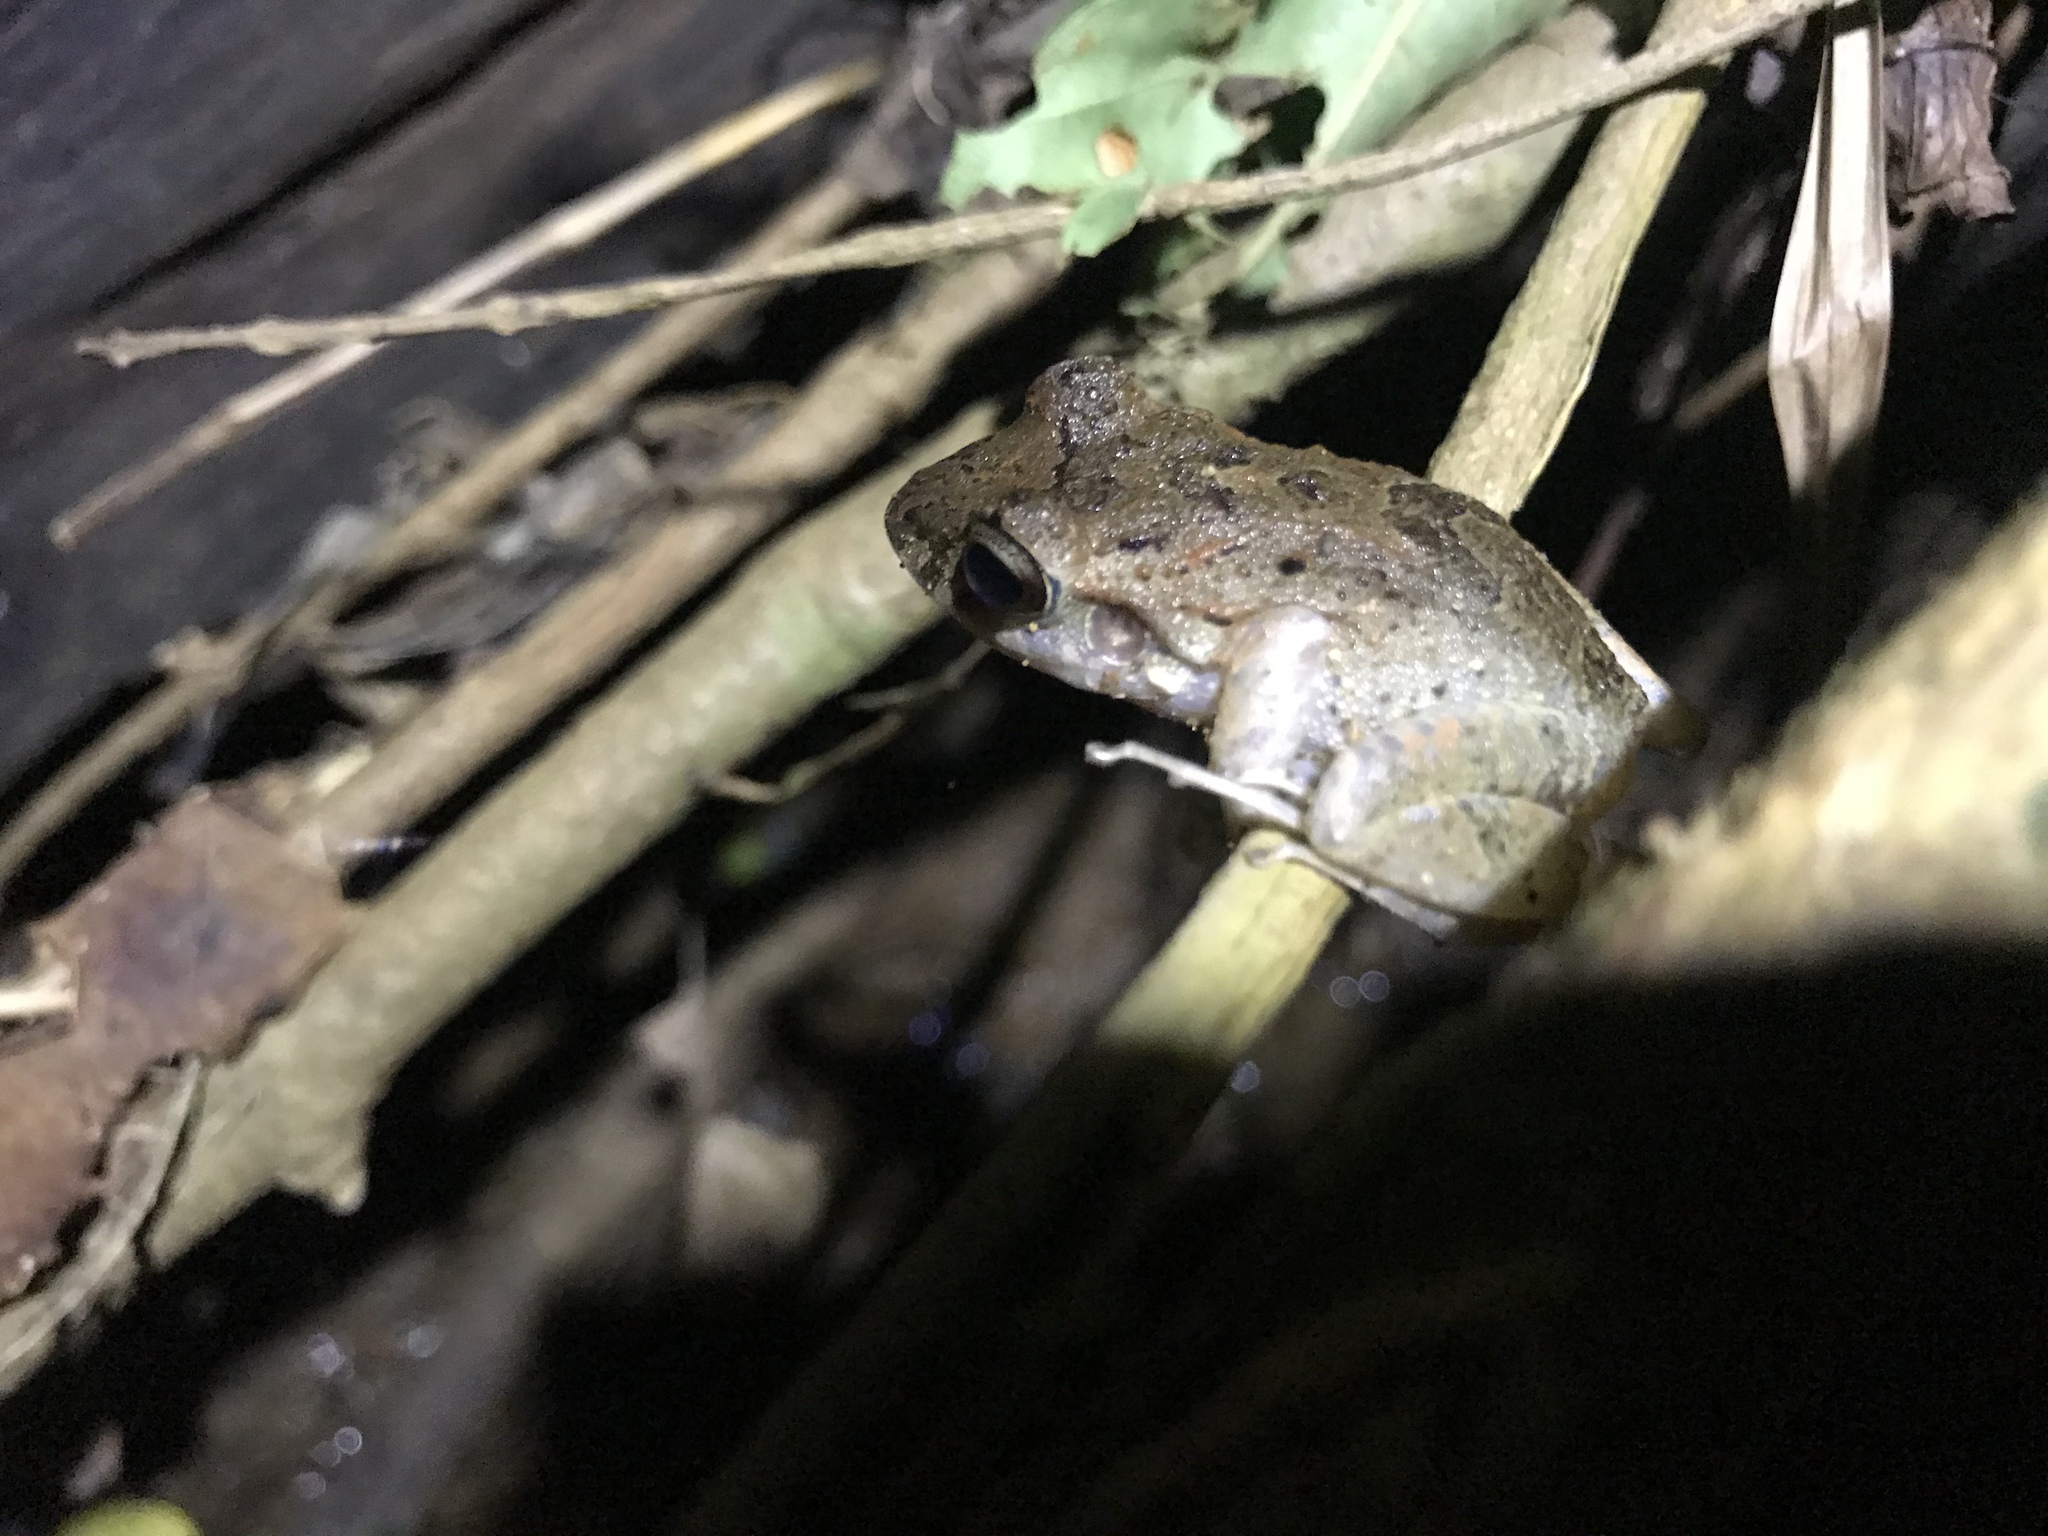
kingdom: Animalia
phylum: Chordata
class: Amphibia
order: Anura
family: Craugastoridae
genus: Craugastor
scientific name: Craugastor fitzingeri
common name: Fitzinger's robber frog
